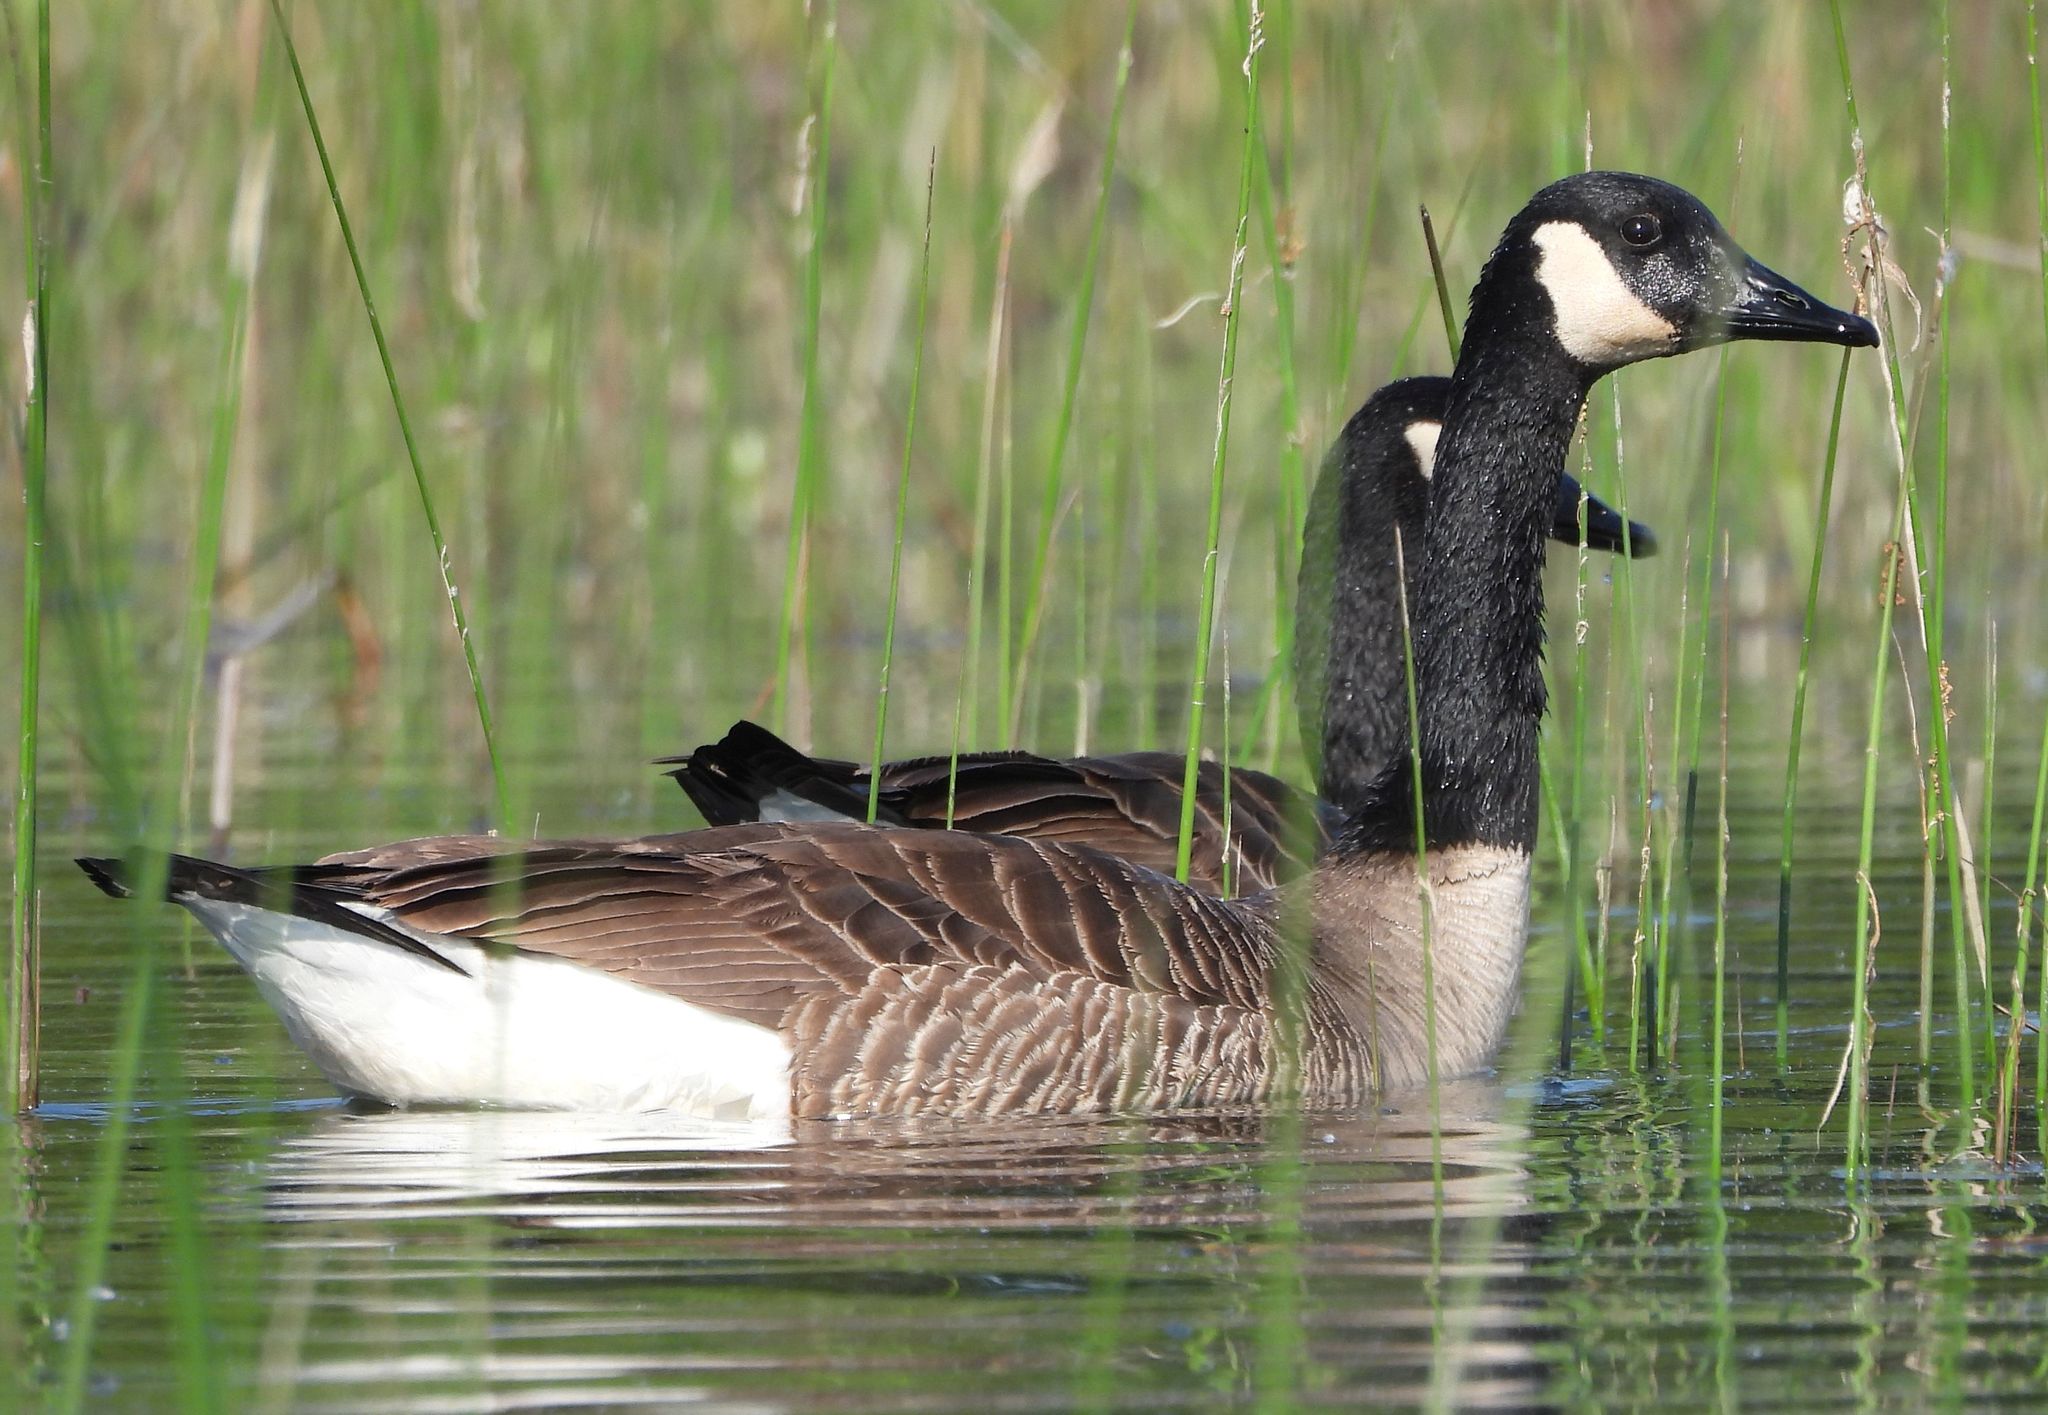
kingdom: Animalia
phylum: Chordata
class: Aves
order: Anseriformes
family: Anatidae
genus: Branta
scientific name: Branta canadensis
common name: Canada goose
